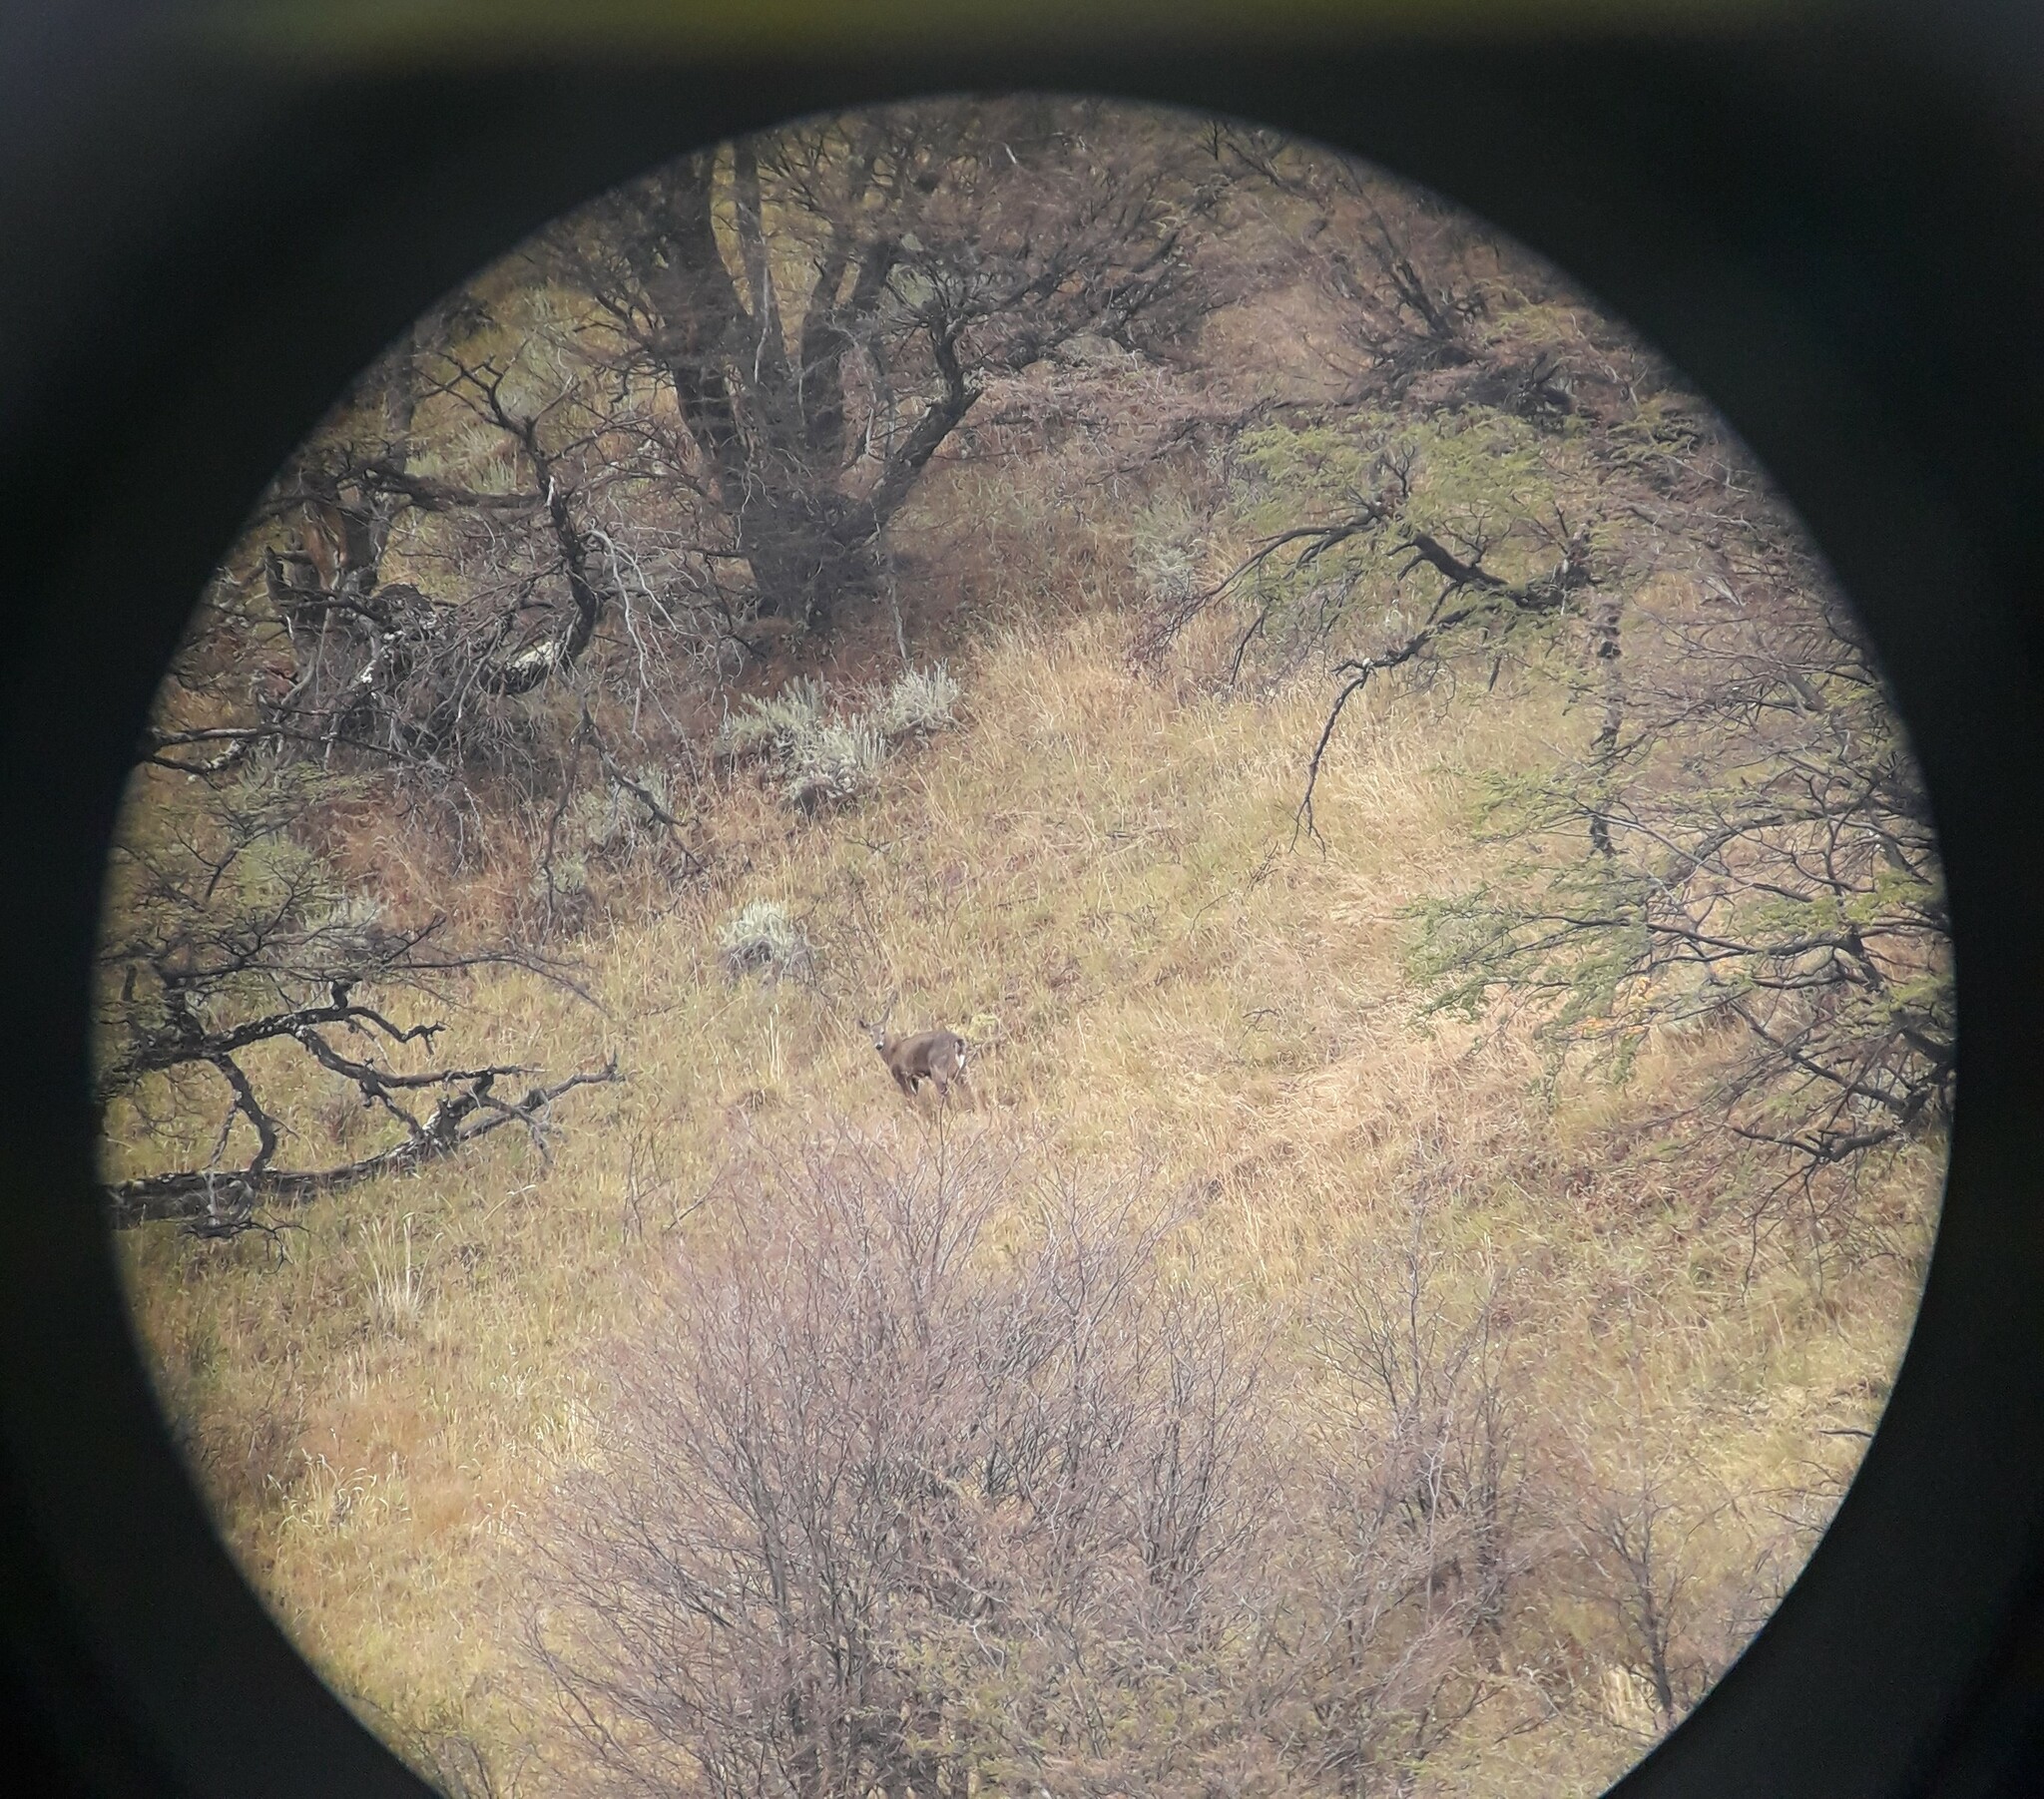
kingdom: Animalia
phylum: Chordata
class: Mammalia
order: Artiodactyla
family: Cervidae
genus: Hippocamelus
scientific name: Hippocamelus bisulcus
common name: South andean huemul
